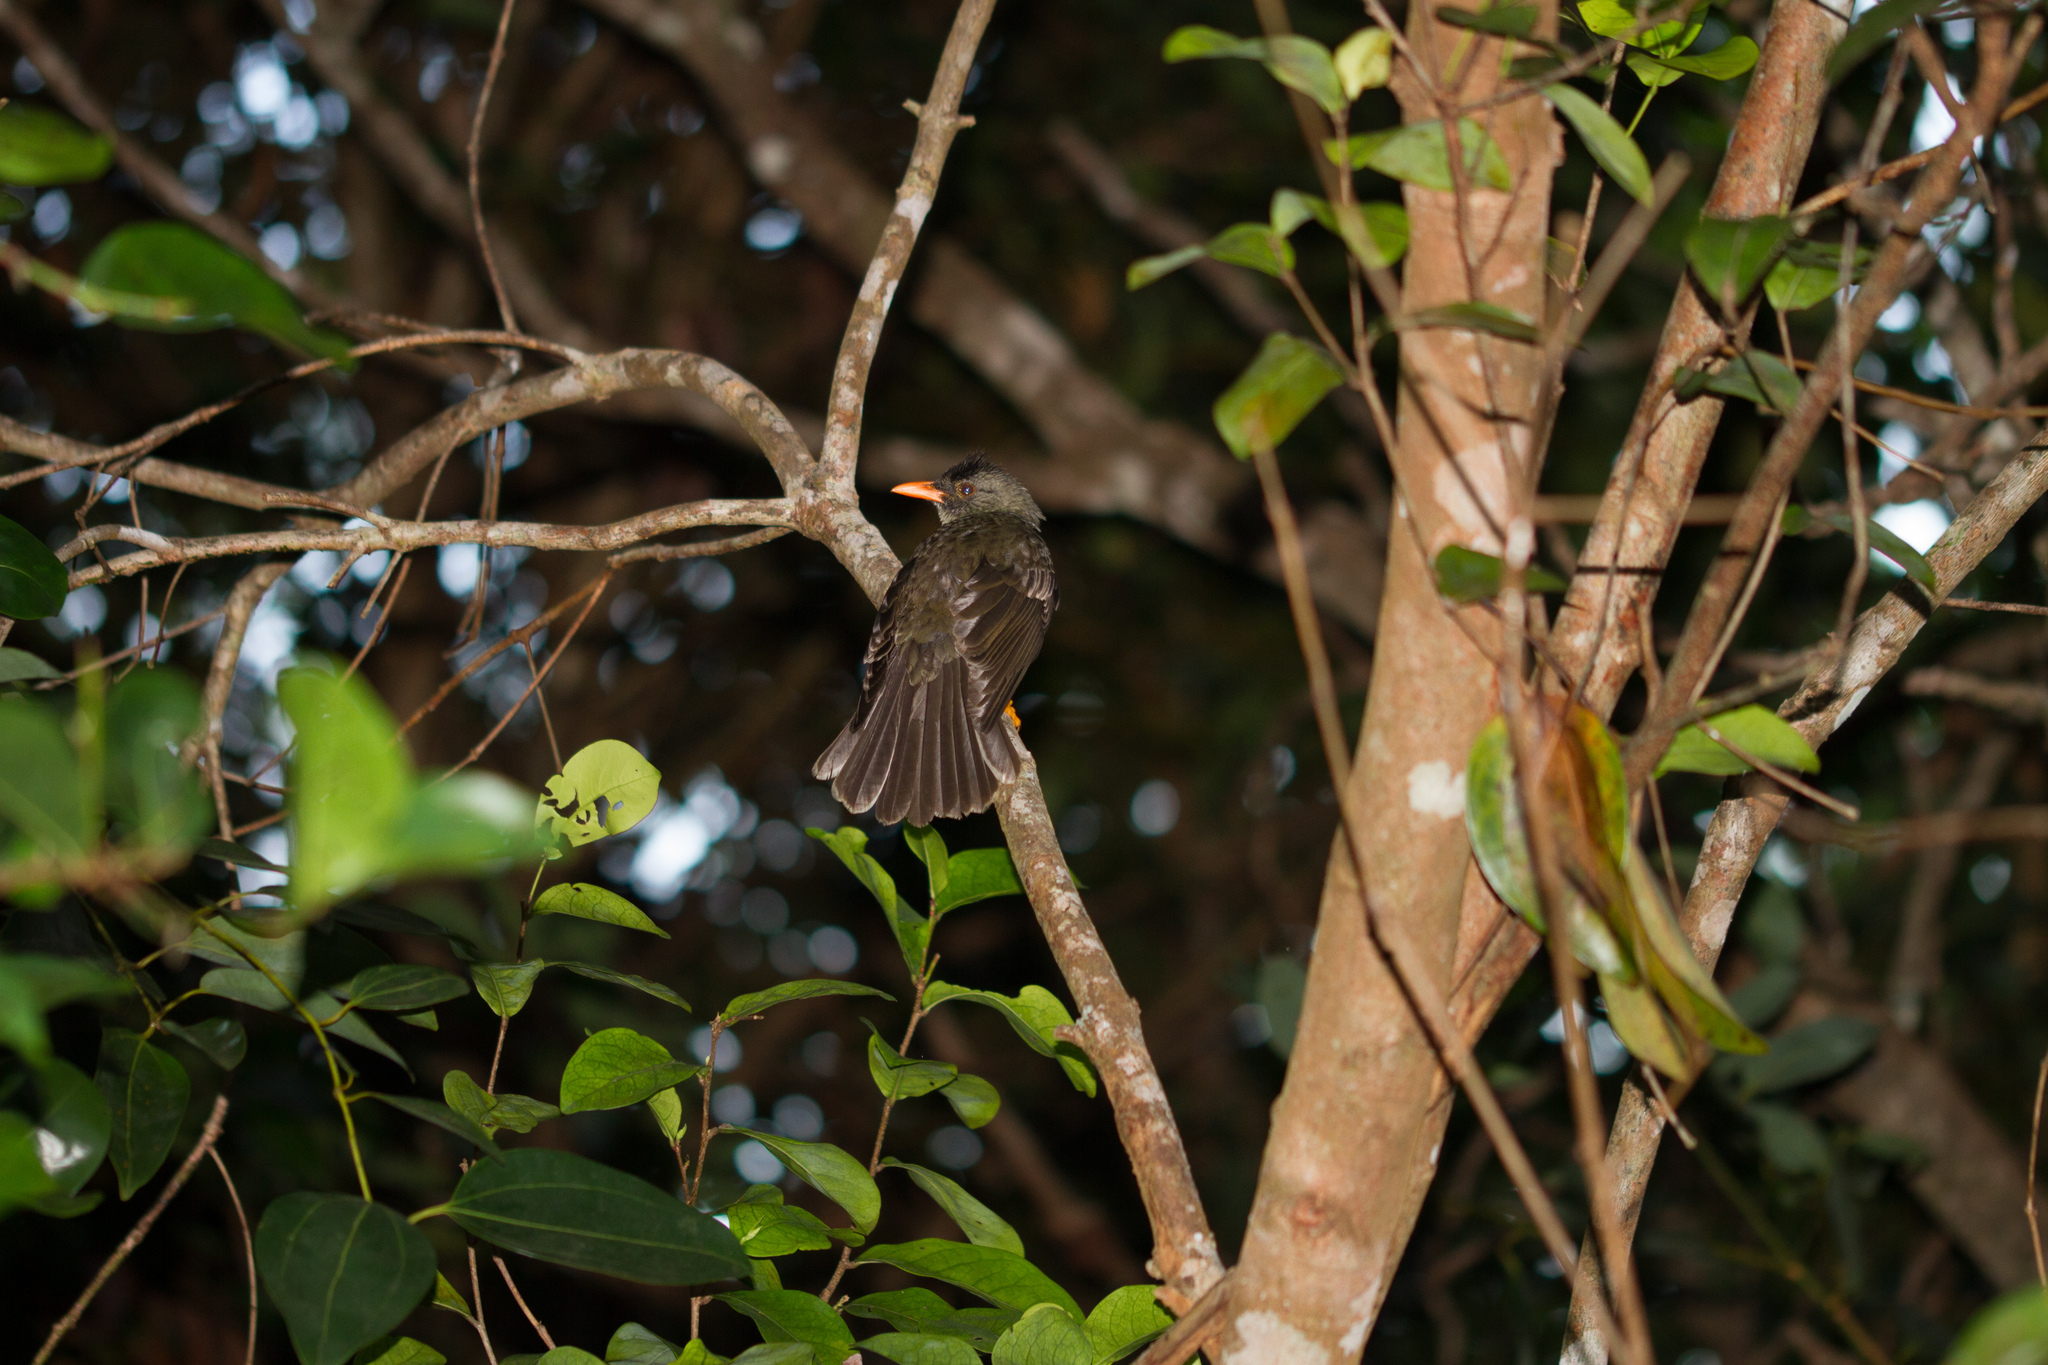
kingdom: Animalia
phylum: Chordata
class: Aves
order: Passeriformes
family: Pycnonotidae
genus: Hypsipetes
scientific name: Hypsipetes crassirostris
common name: Seychelles bulbul
